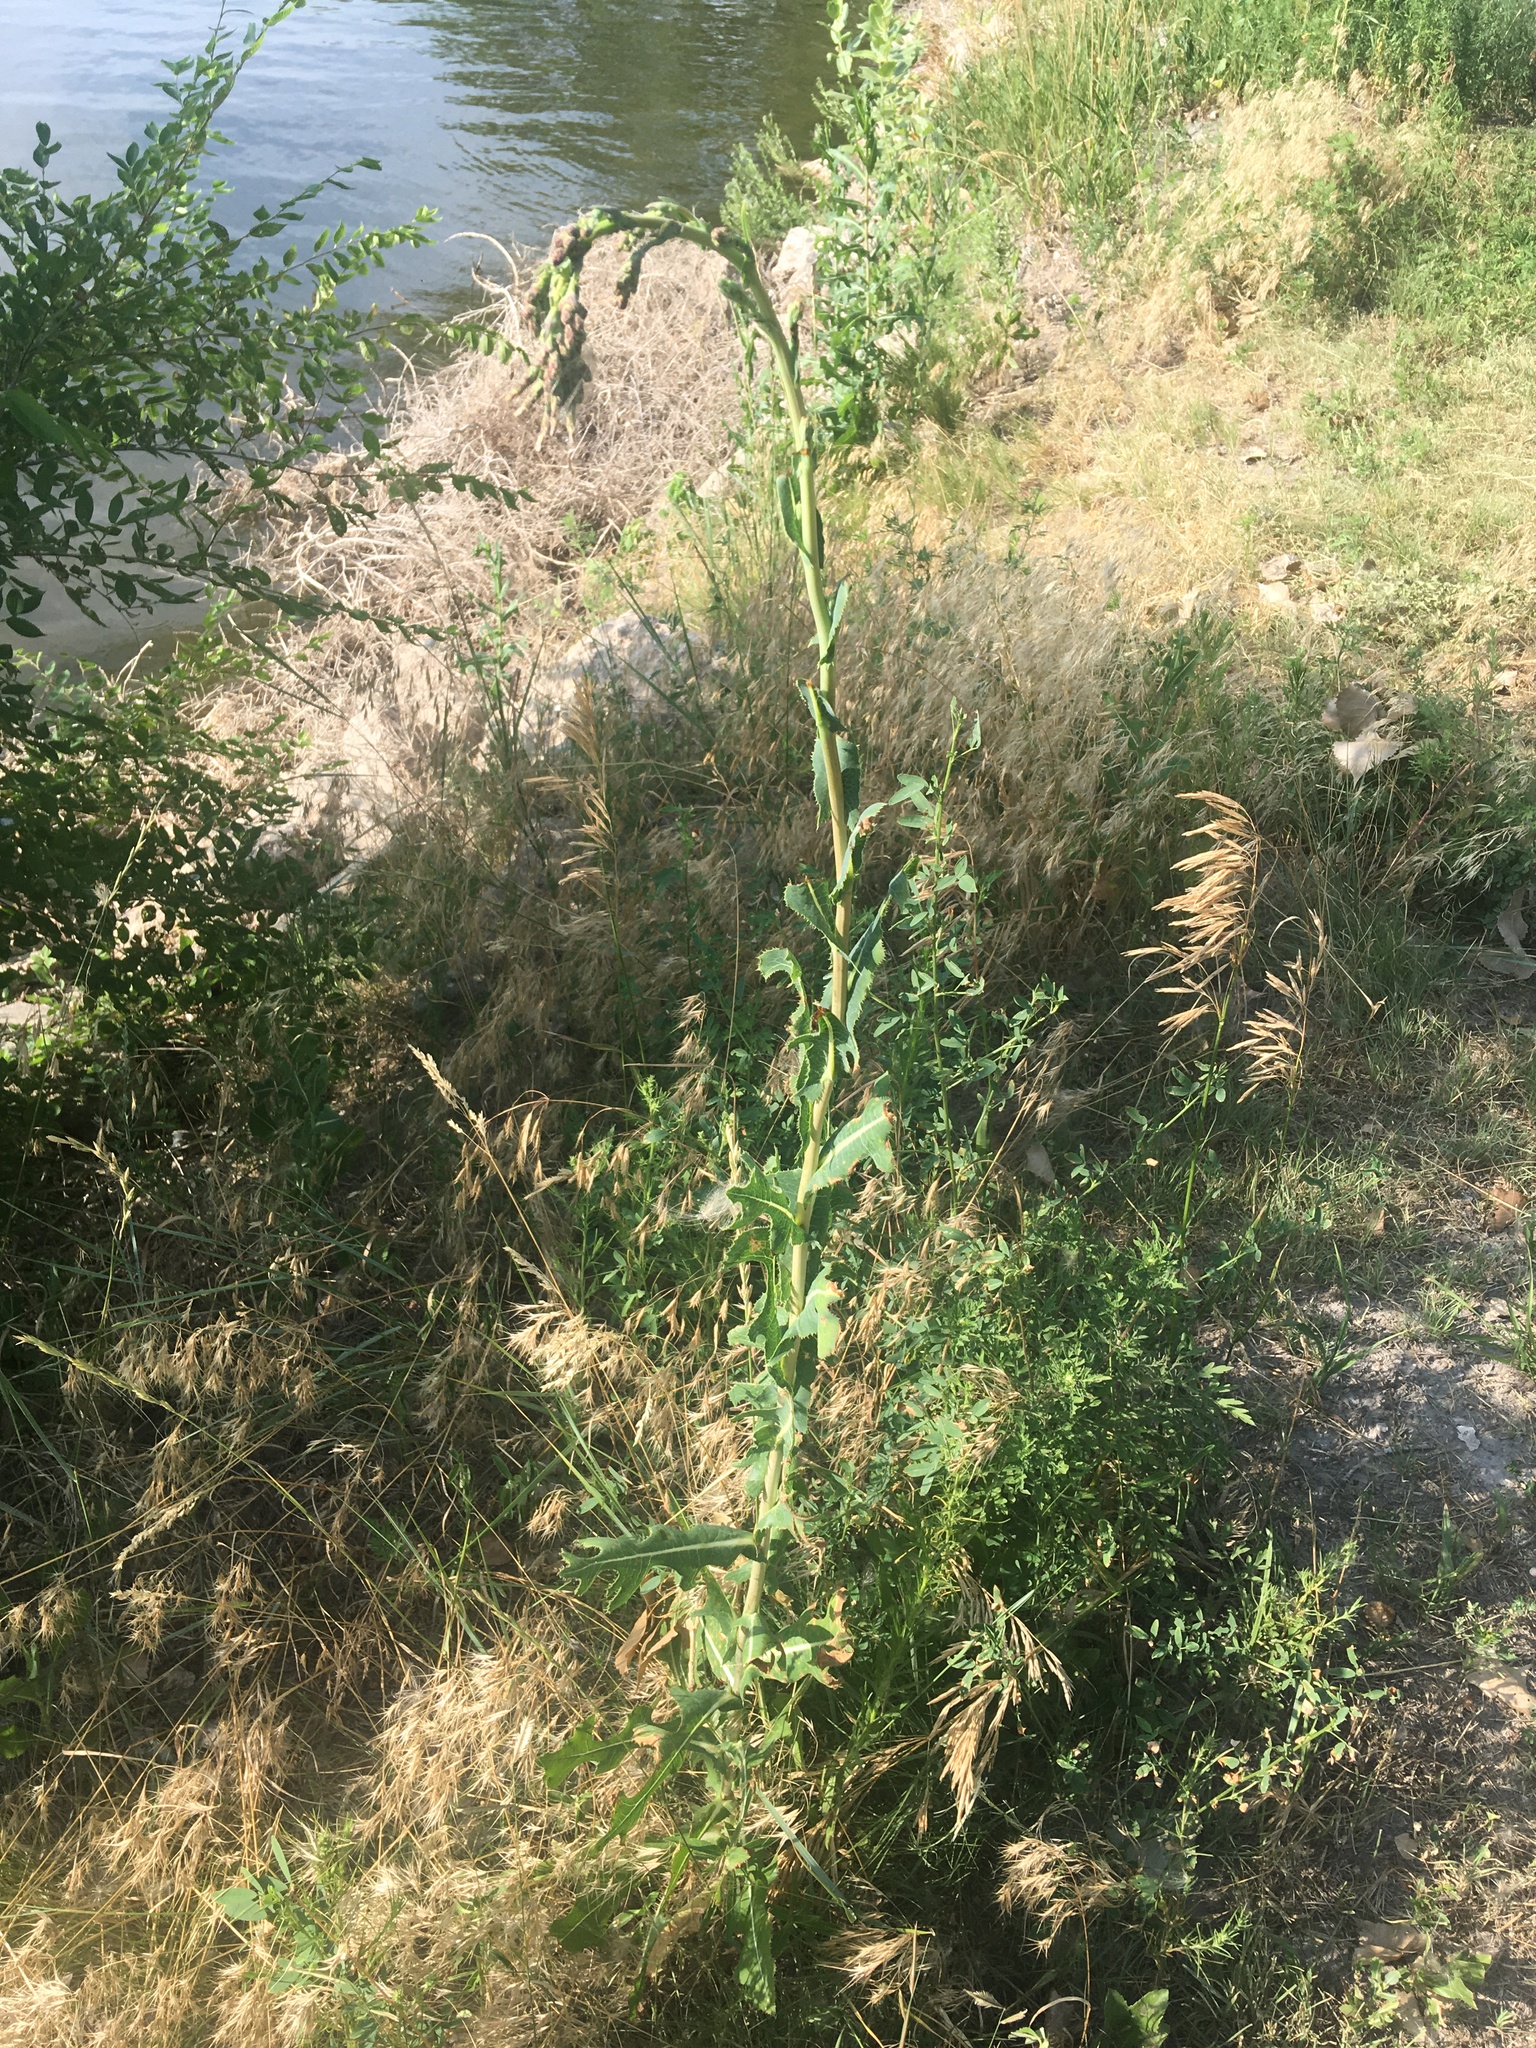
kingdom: Plantae
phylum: Tracheophyta
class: Magnoliopsida
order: Asterales
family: Asteraceae
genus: Lactuca
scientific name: Lactuca serriola
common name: Prickly lettuce
